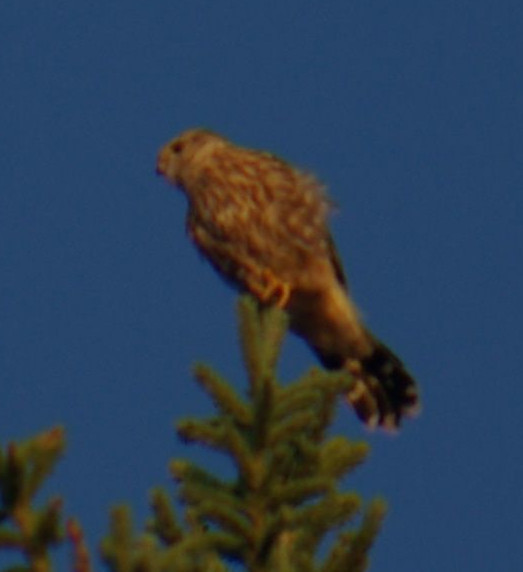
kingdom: Animalia
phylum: Chordata
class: Aves
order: Falconiformes
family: Falconidae
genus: Falco
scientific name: Falco columbarius
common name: Merlin
